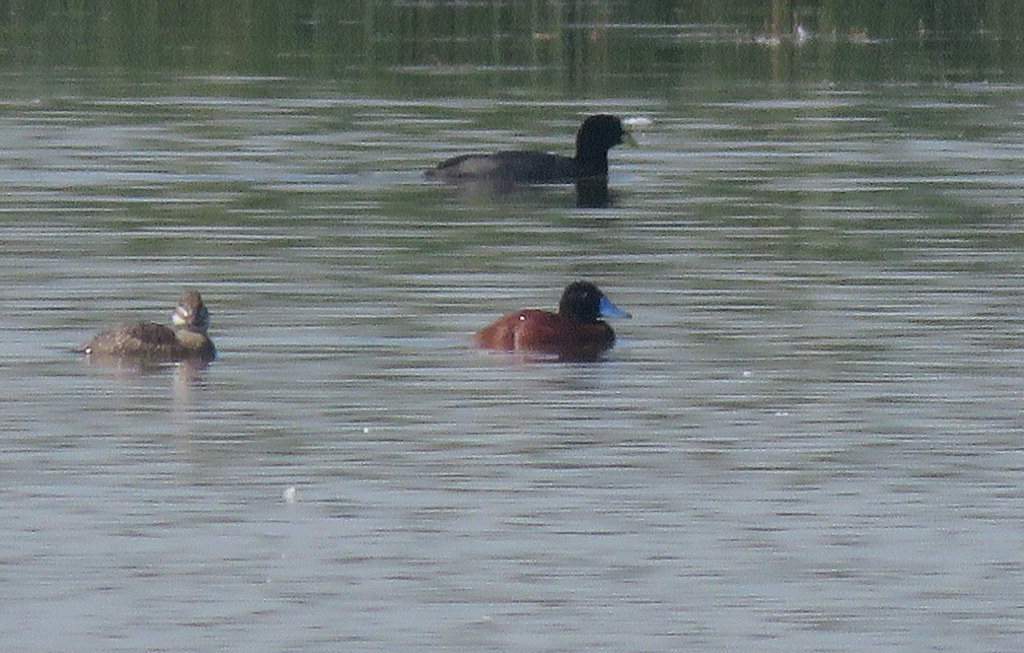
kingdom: Animalia
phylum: Chordata
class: Aves
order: Anseriformes
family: Anatidae
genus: Oxyura
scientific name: Oxyura vittata
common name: Lake duck
